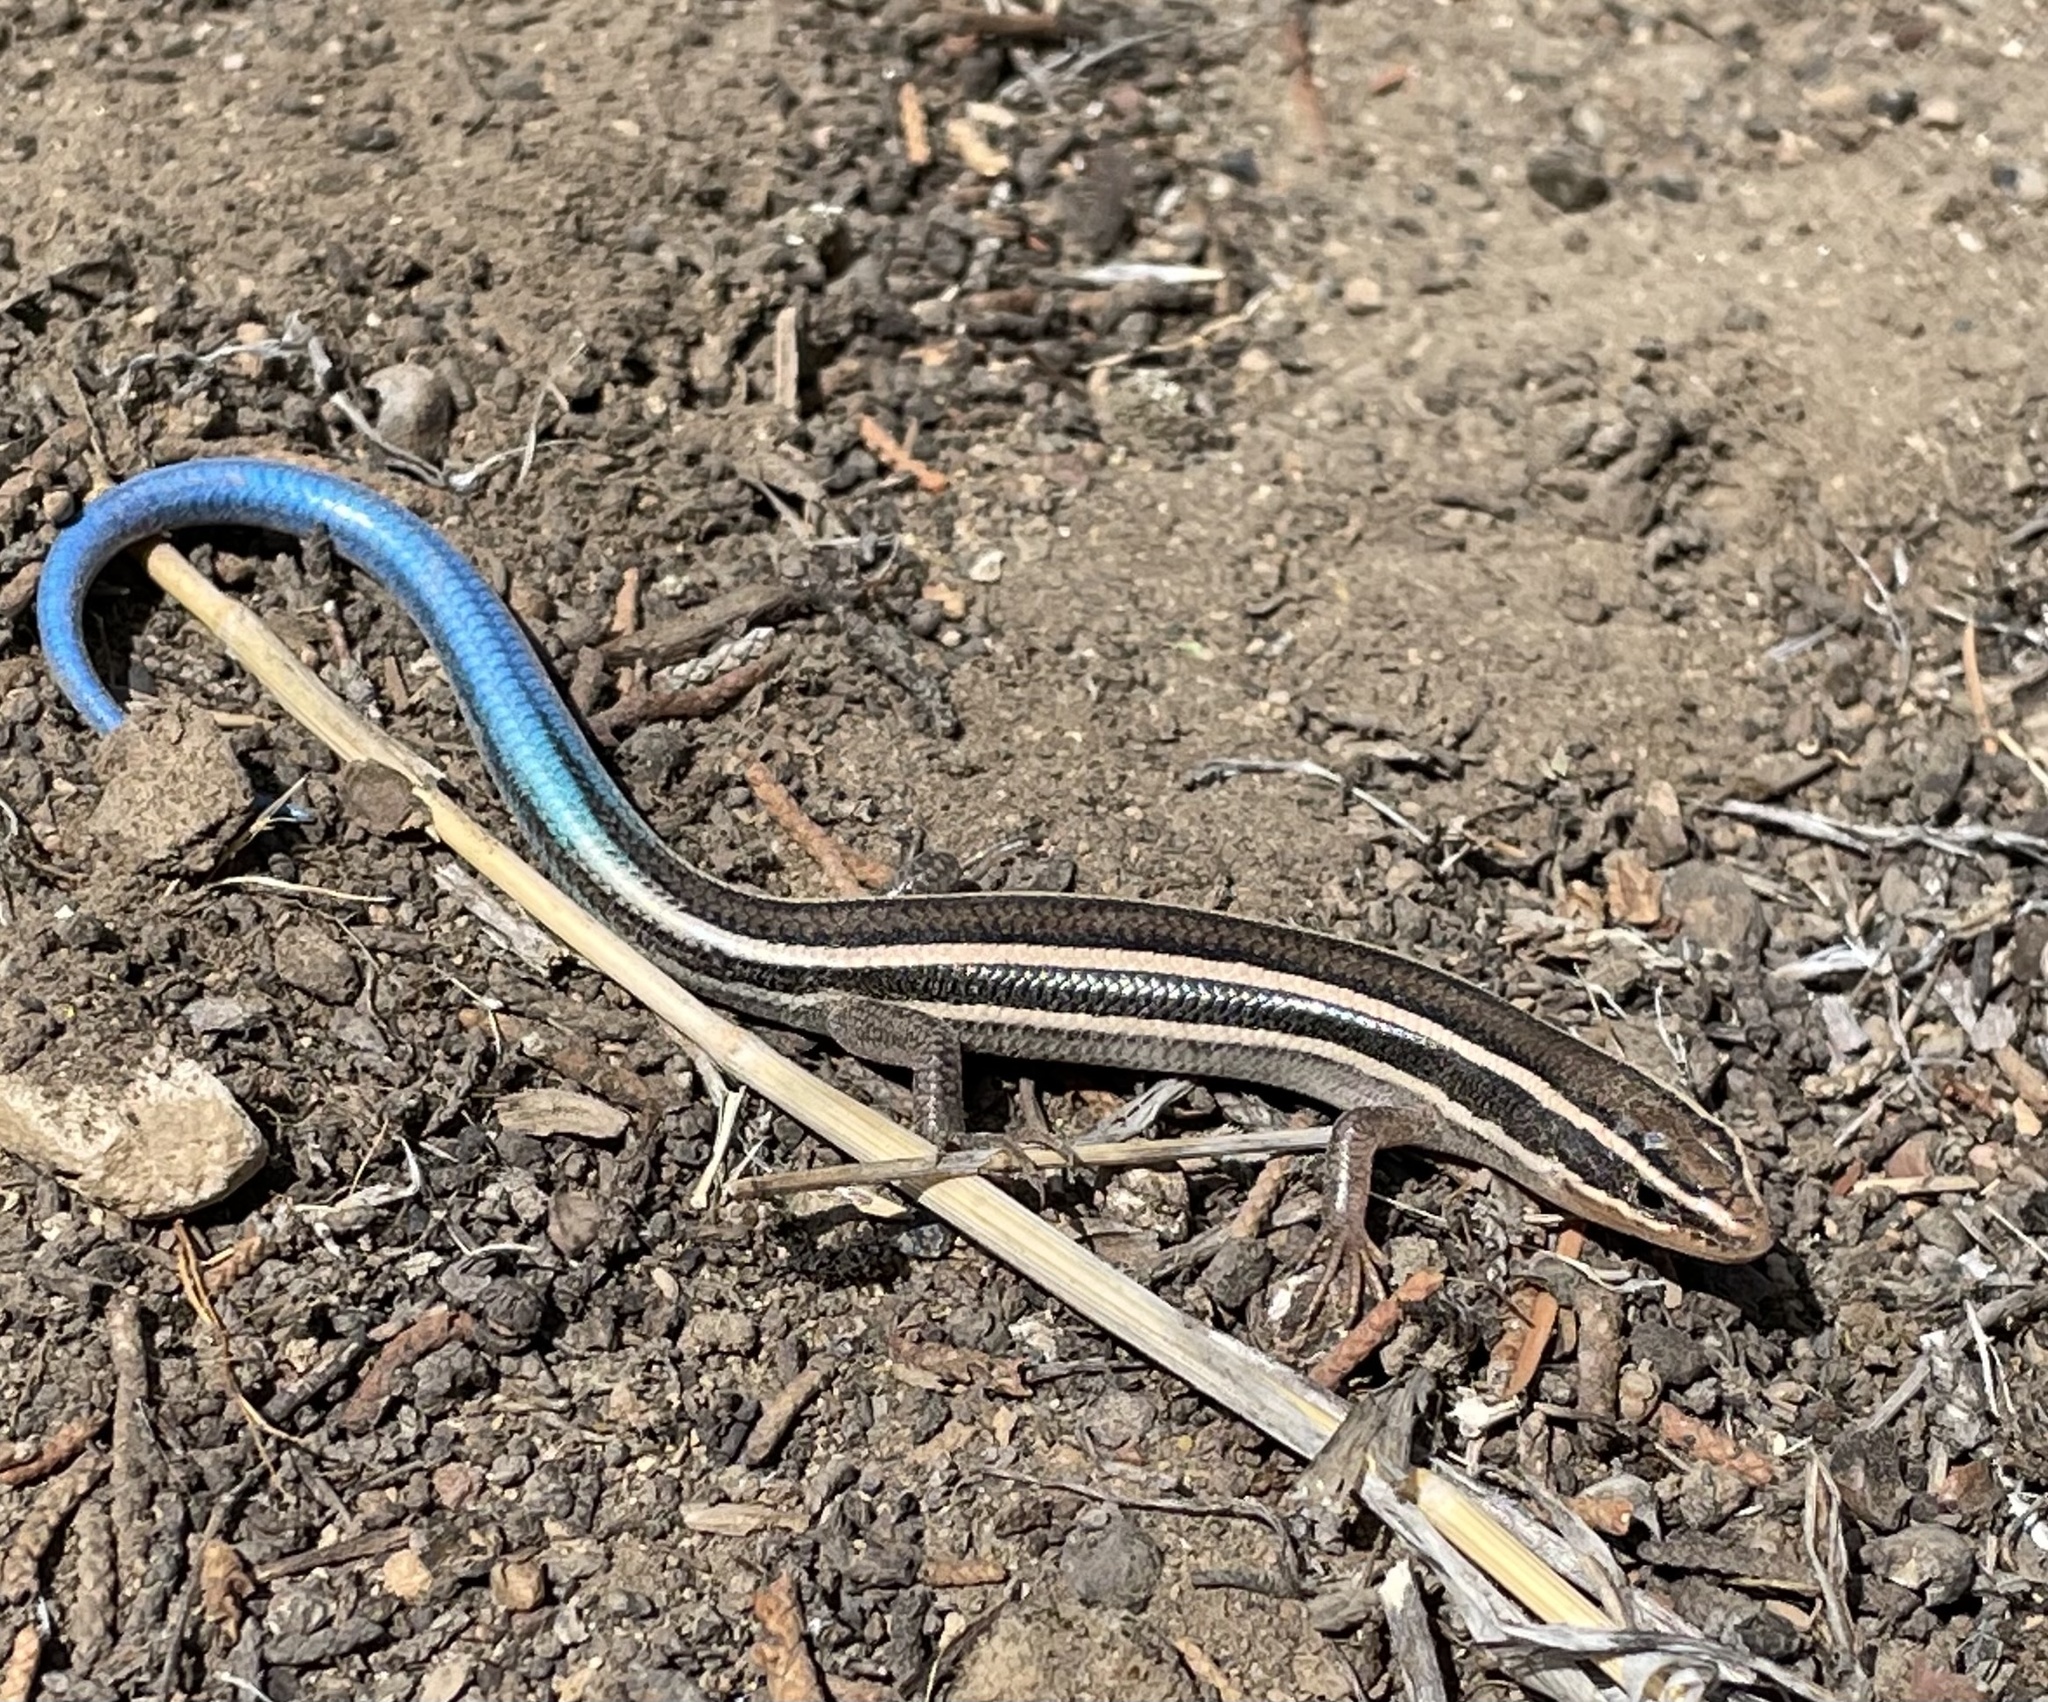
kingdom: Animalia
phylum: Chordata
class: Squamata
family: Scincidae
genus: Plestiodon
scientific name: Plestiodon skiltonianus
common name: Coronado island skink [interparietalis]
